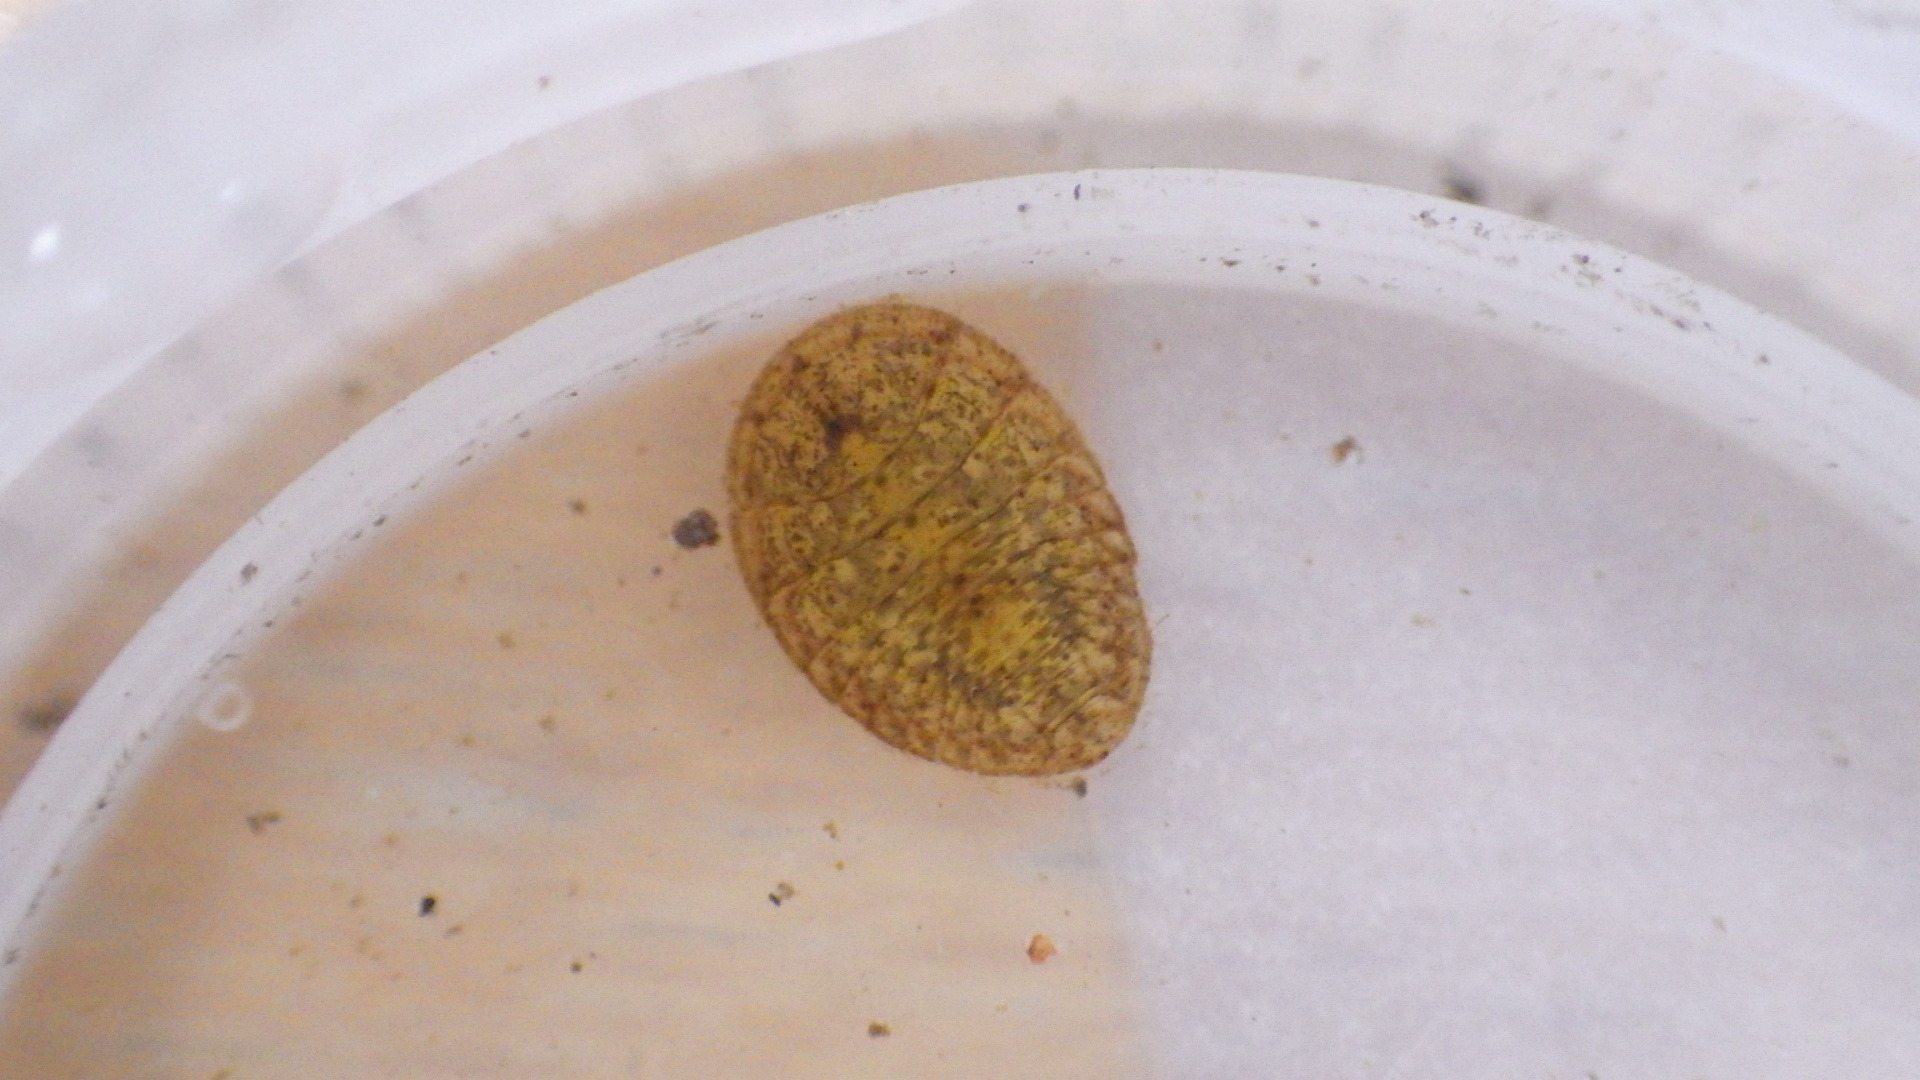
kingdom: Animalia
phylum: Arthropoda
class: Insecta
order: Coleoptera
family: Psephenidae
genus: Psephenus
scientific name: Psephenus herricki
